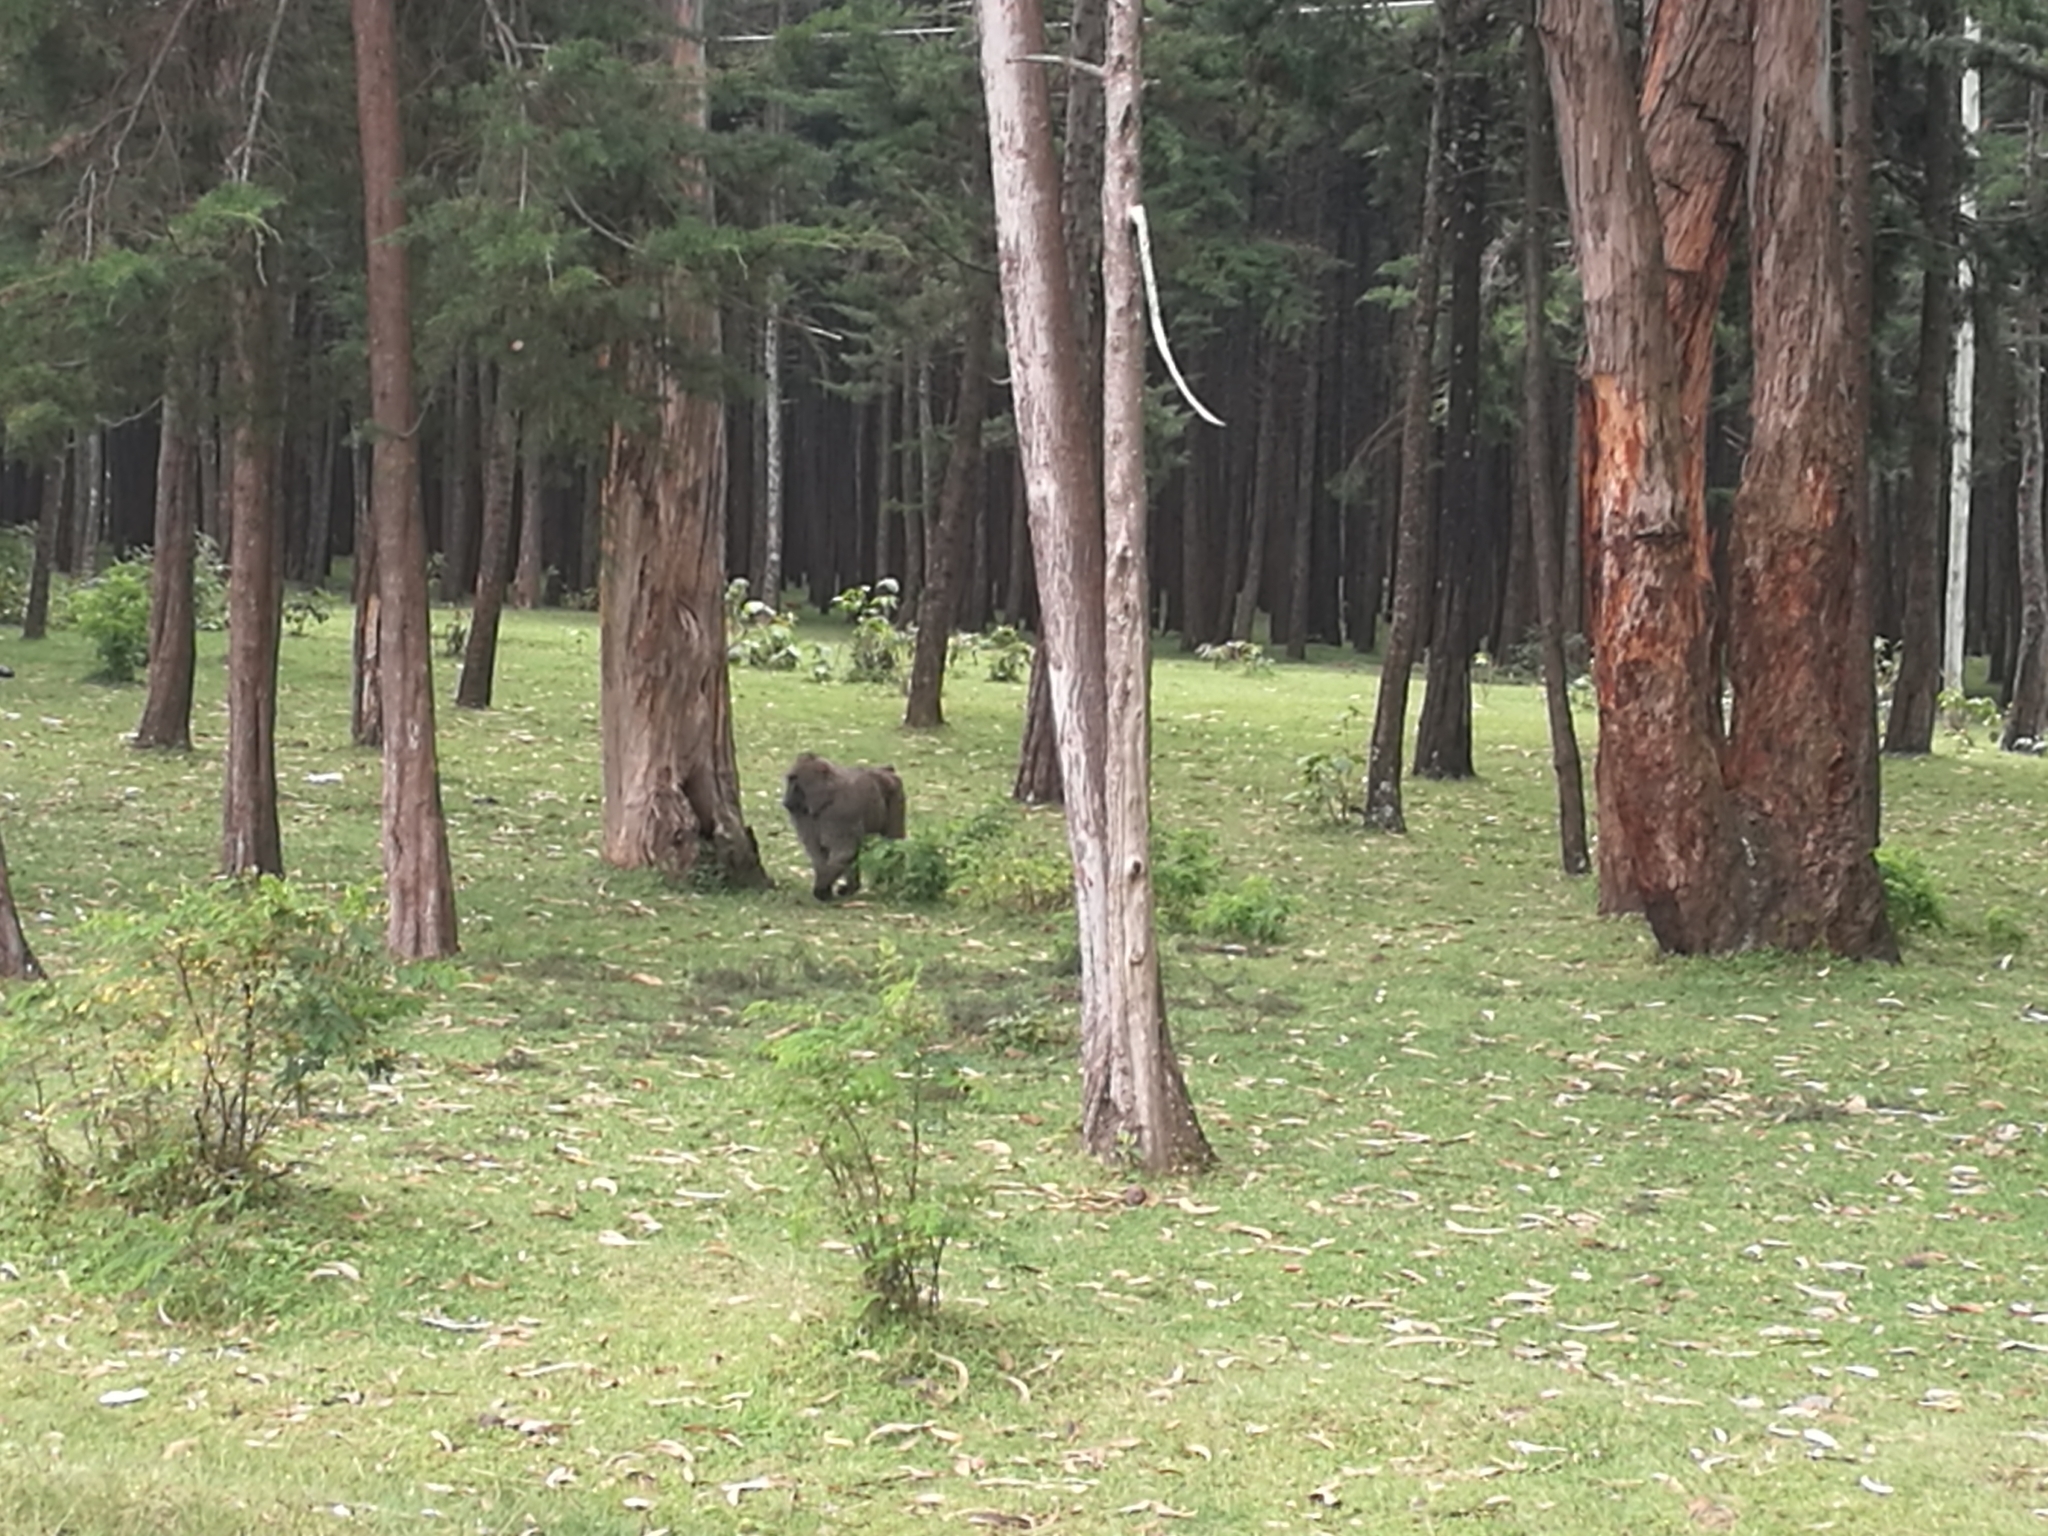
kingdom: Animalia
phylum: Chordata
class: Mammalia
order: Primates
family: Cercopithecidae
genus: Papio
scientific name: Papio anubis
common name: Olive baboon
